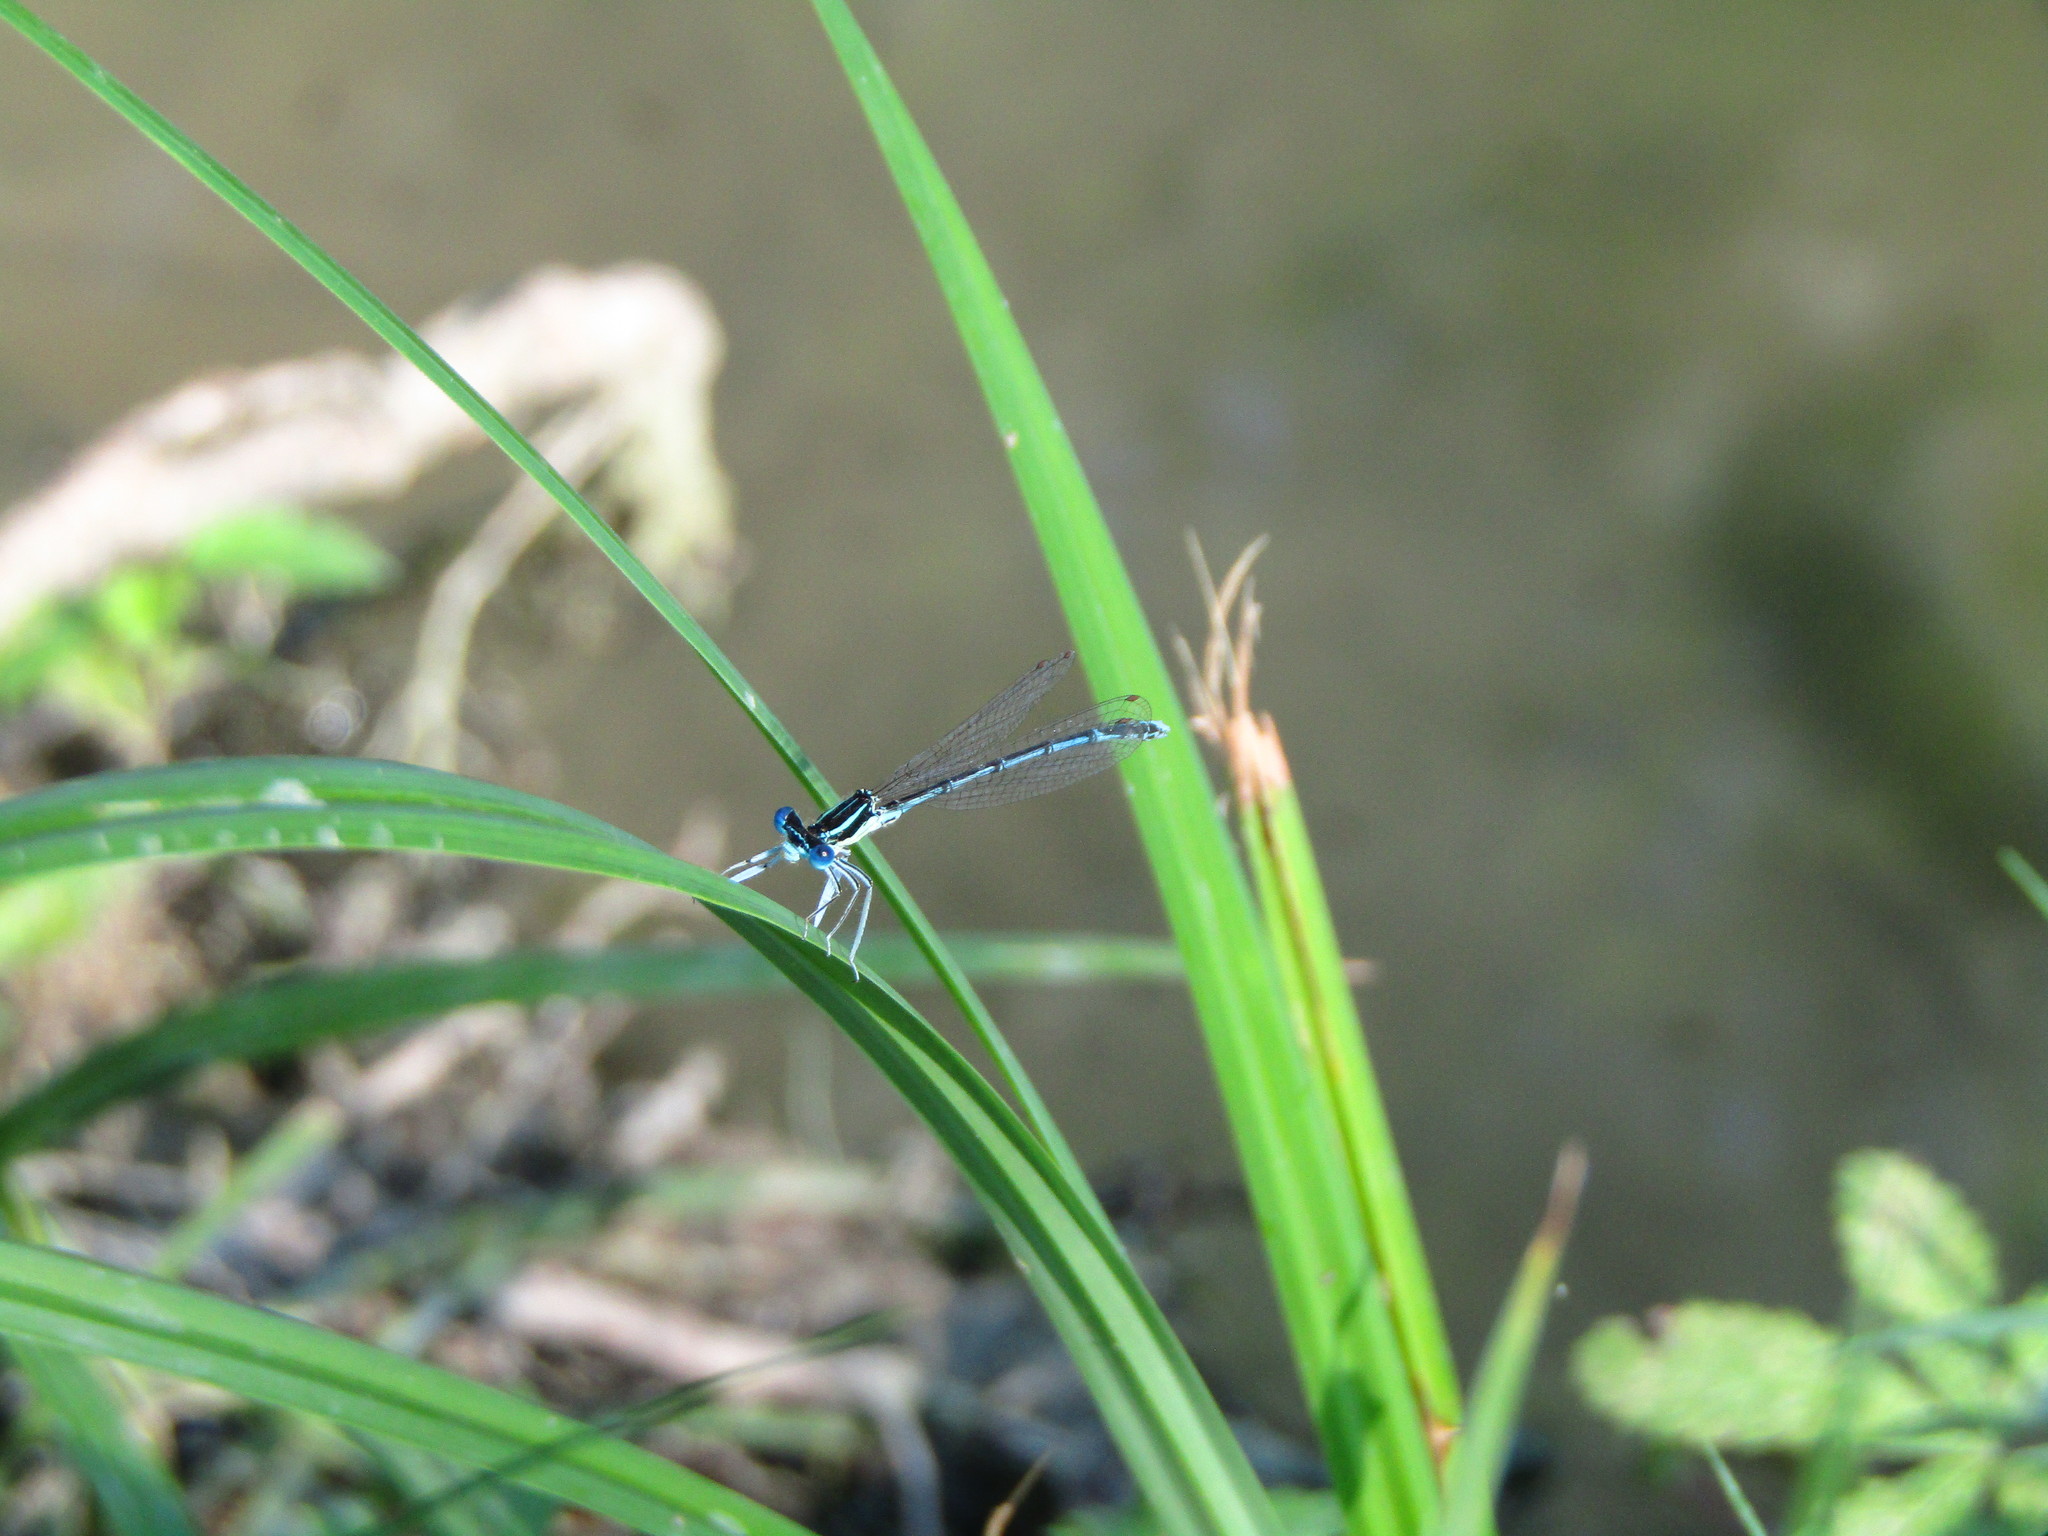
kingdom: Animalia
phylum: Arthropoda
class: Insecta
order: Odonata
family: Platycnemididae
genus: Platycnemis
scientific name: Platycnemis pennipes
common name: White-legged damselfly
